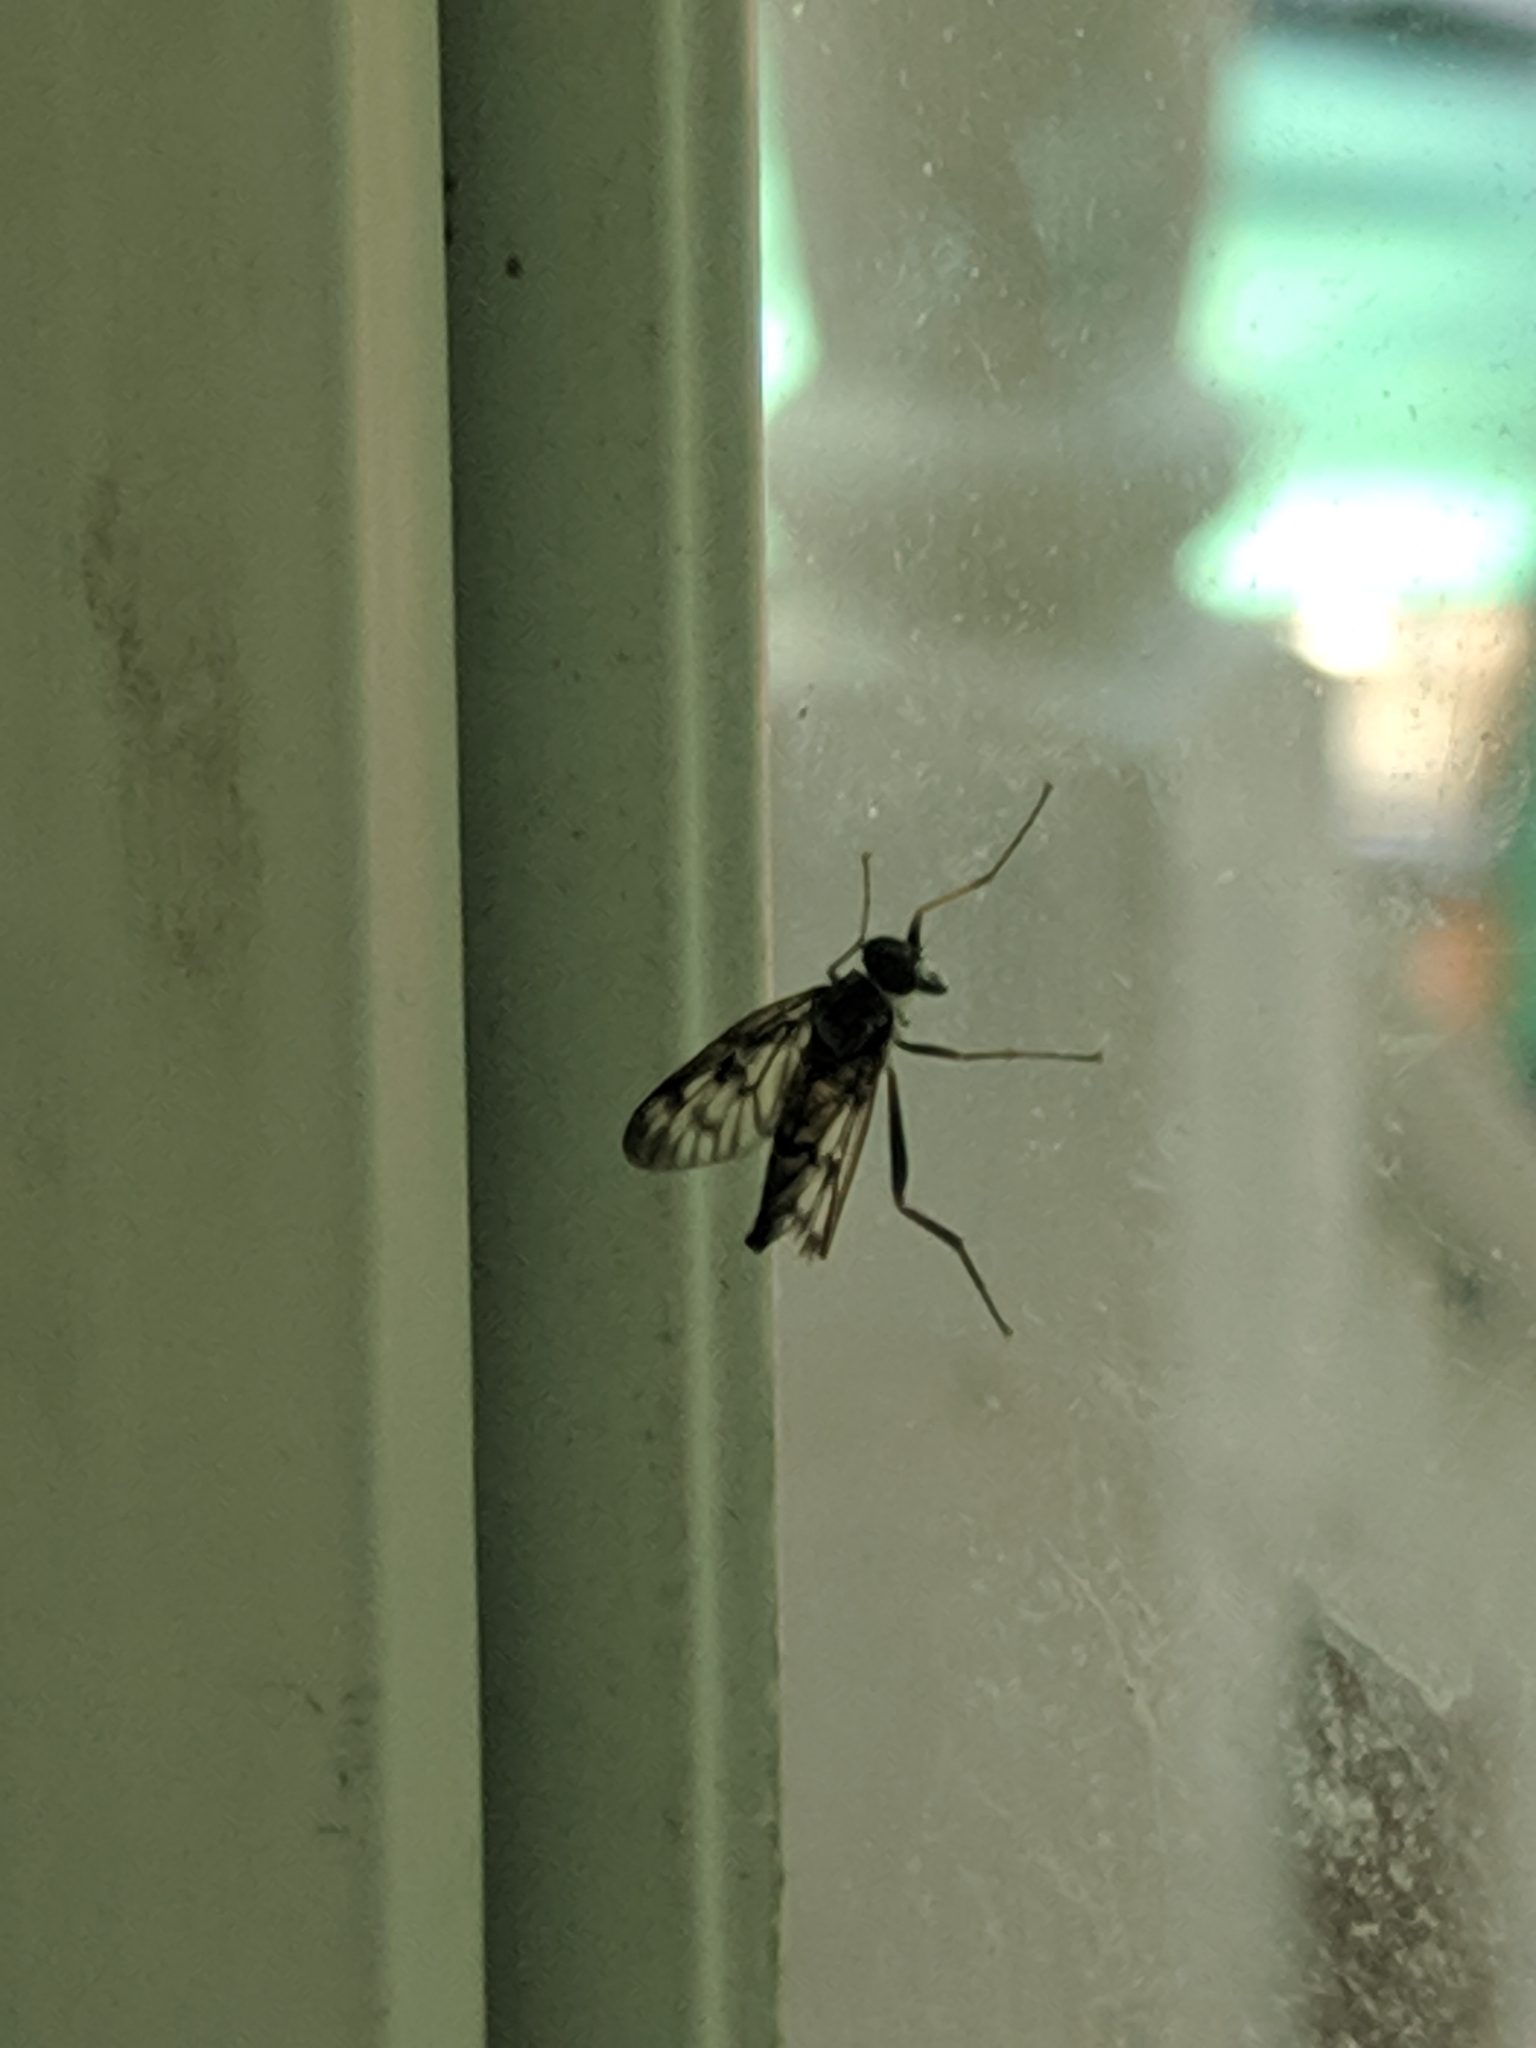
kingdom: Animalia
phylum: Arthropoda
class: Insecta
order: Diptera
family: Rhagionidae
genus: Rhagio
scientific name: Rhagio mystaceus
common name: Common snipe fly
